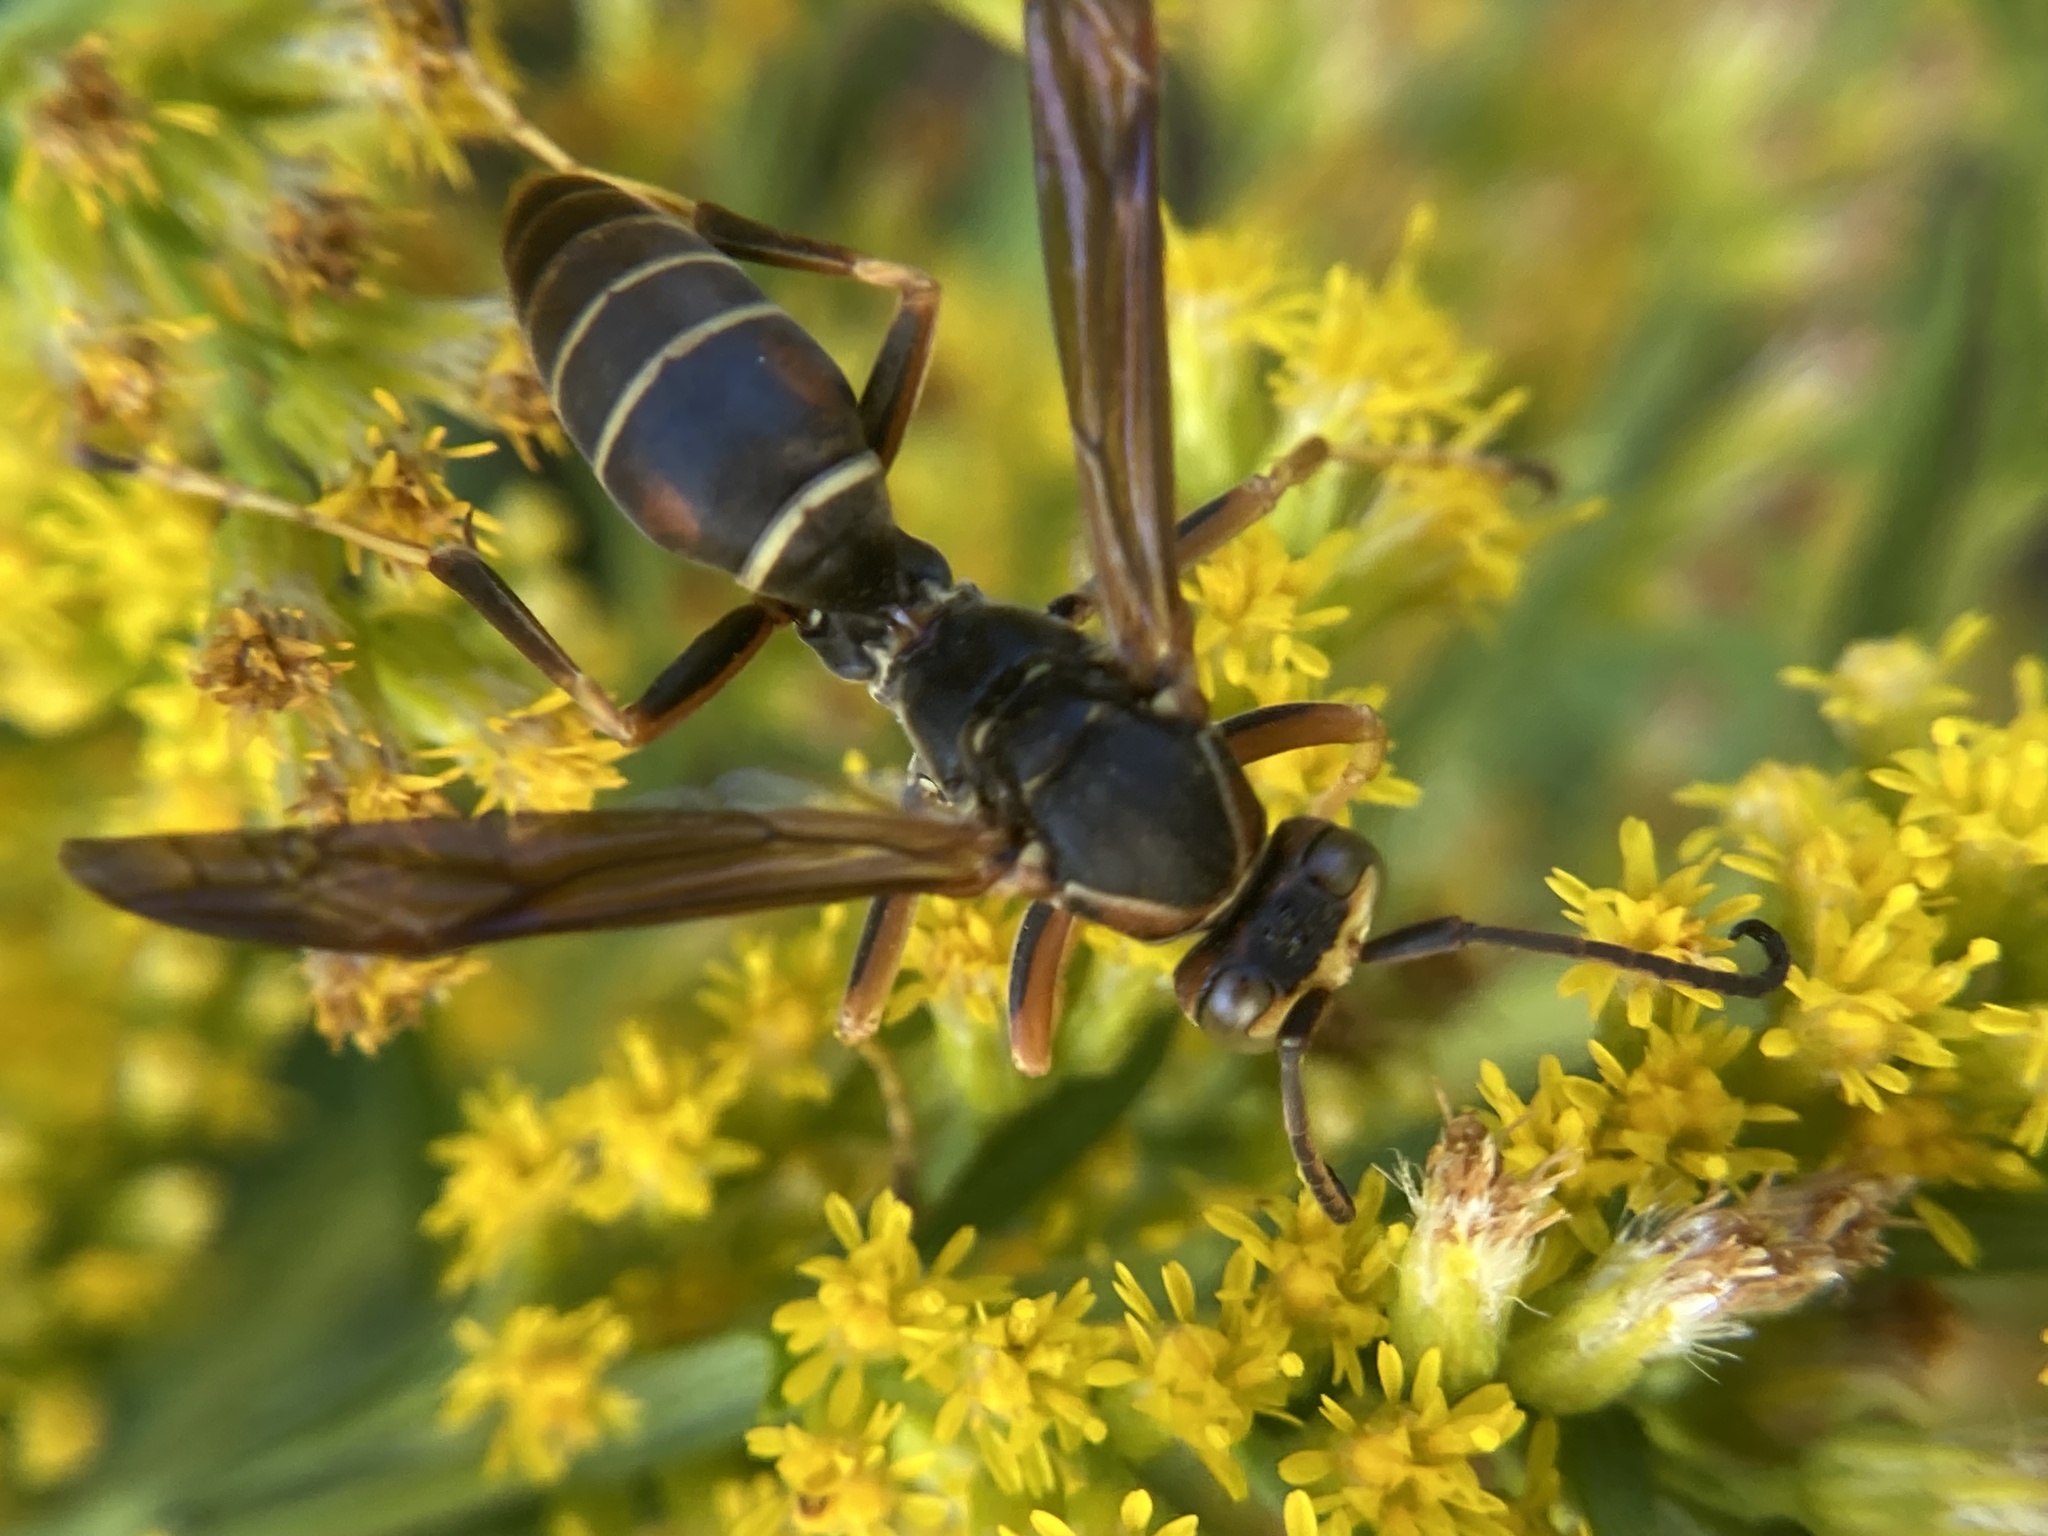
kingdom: Animalia
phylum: Arthropoda
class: Insecta
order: Hymenoptera
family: Eumenidae
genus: Polistes
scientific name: Polistes fuscatus
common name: Dark paper wasp
